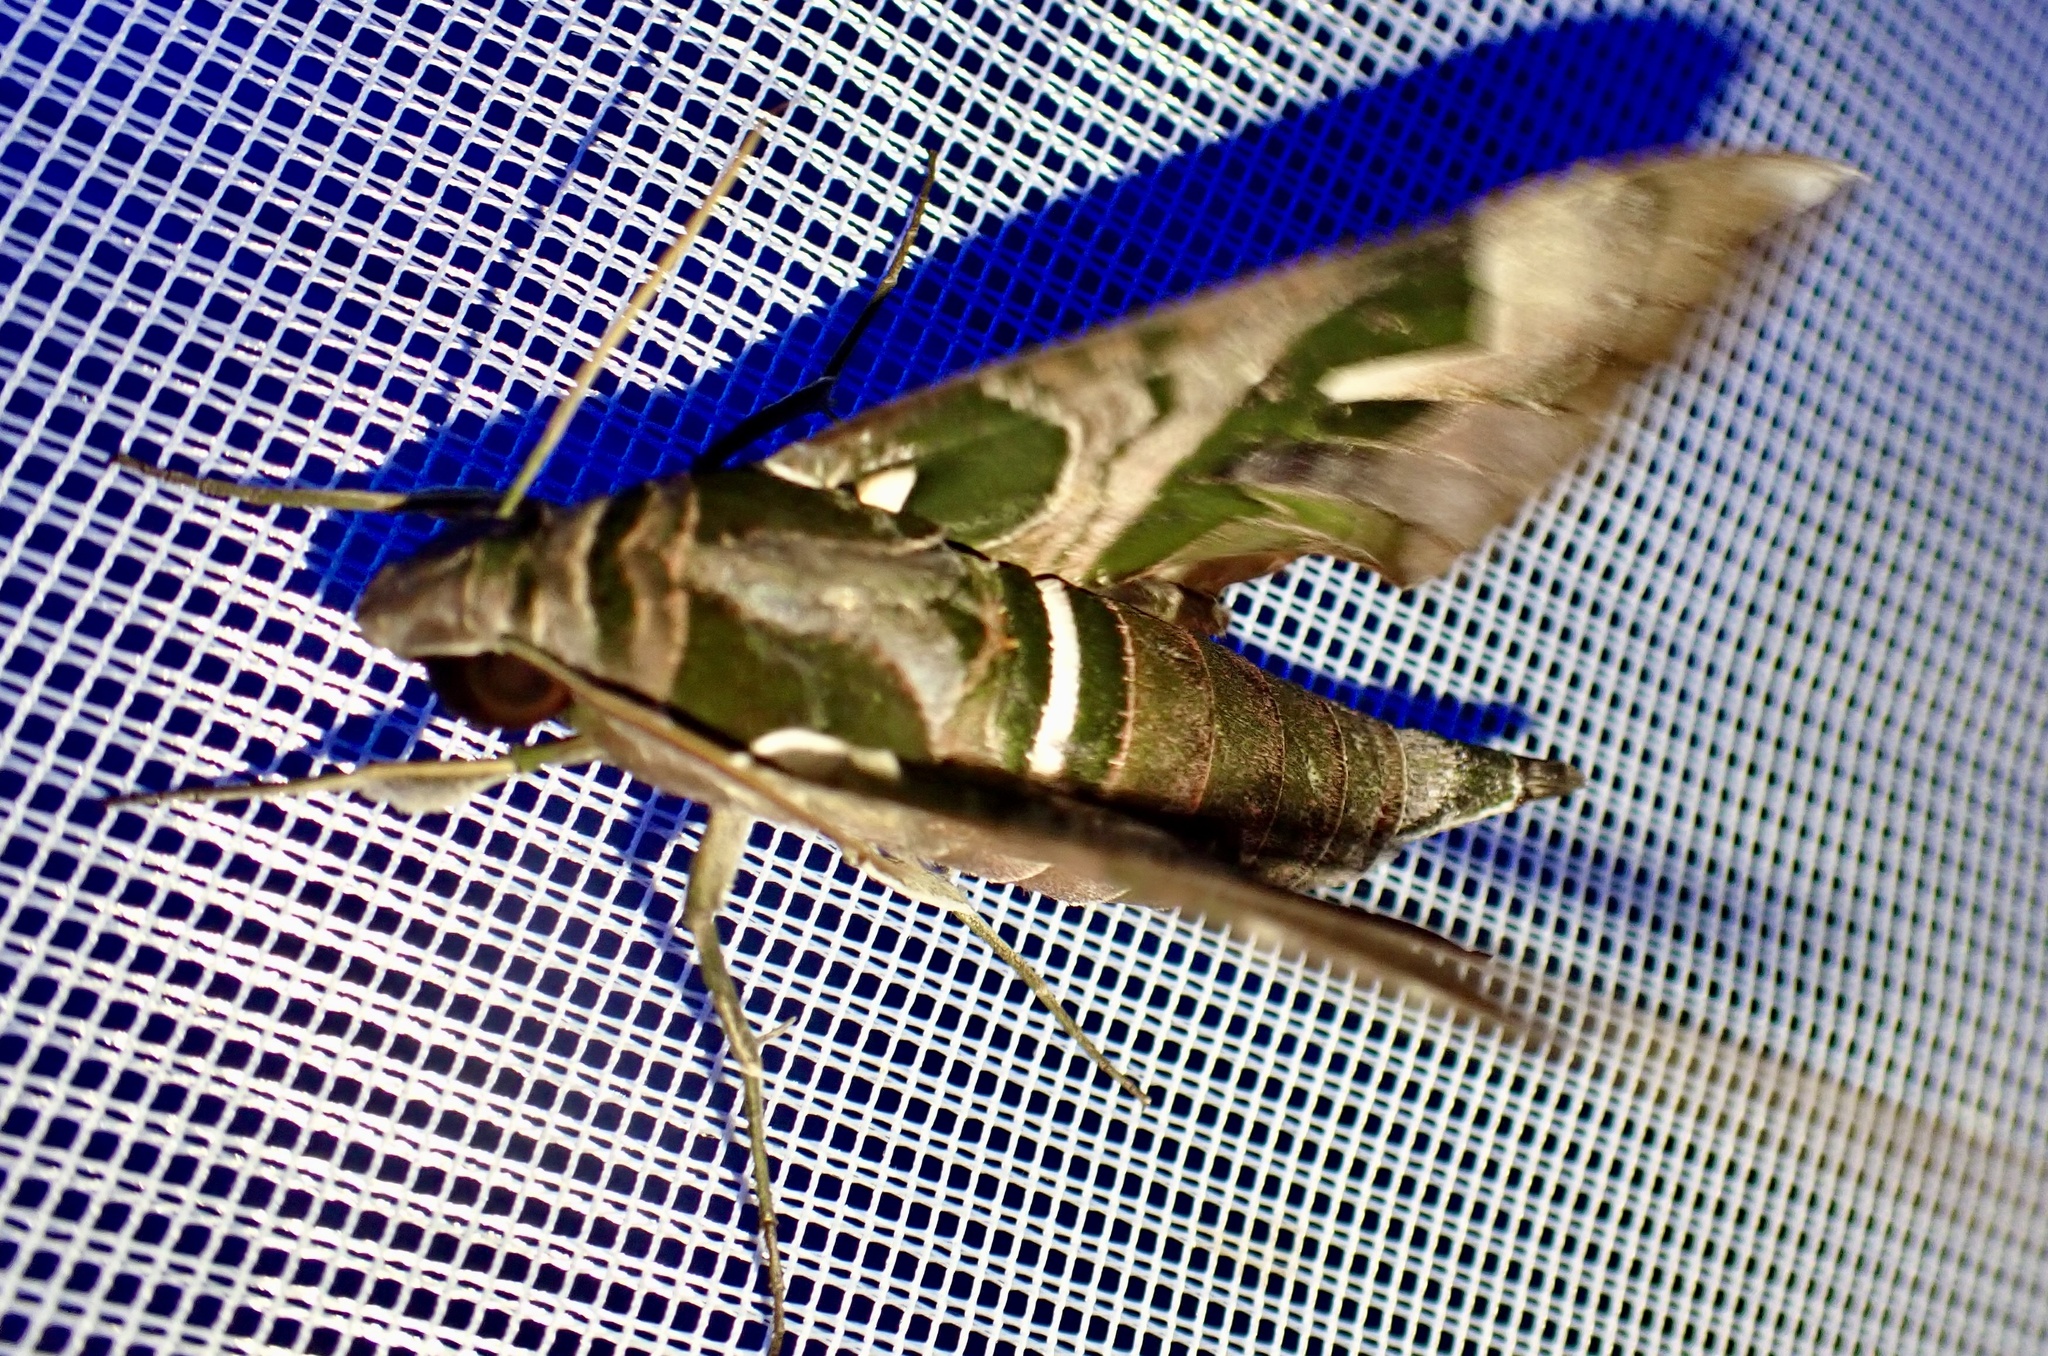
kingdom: Animalia
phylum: Arthropoda
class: Insecta
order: Lepidoptera
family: Sphingidae
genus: Daphnis
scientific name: Daphnis dohertyi
